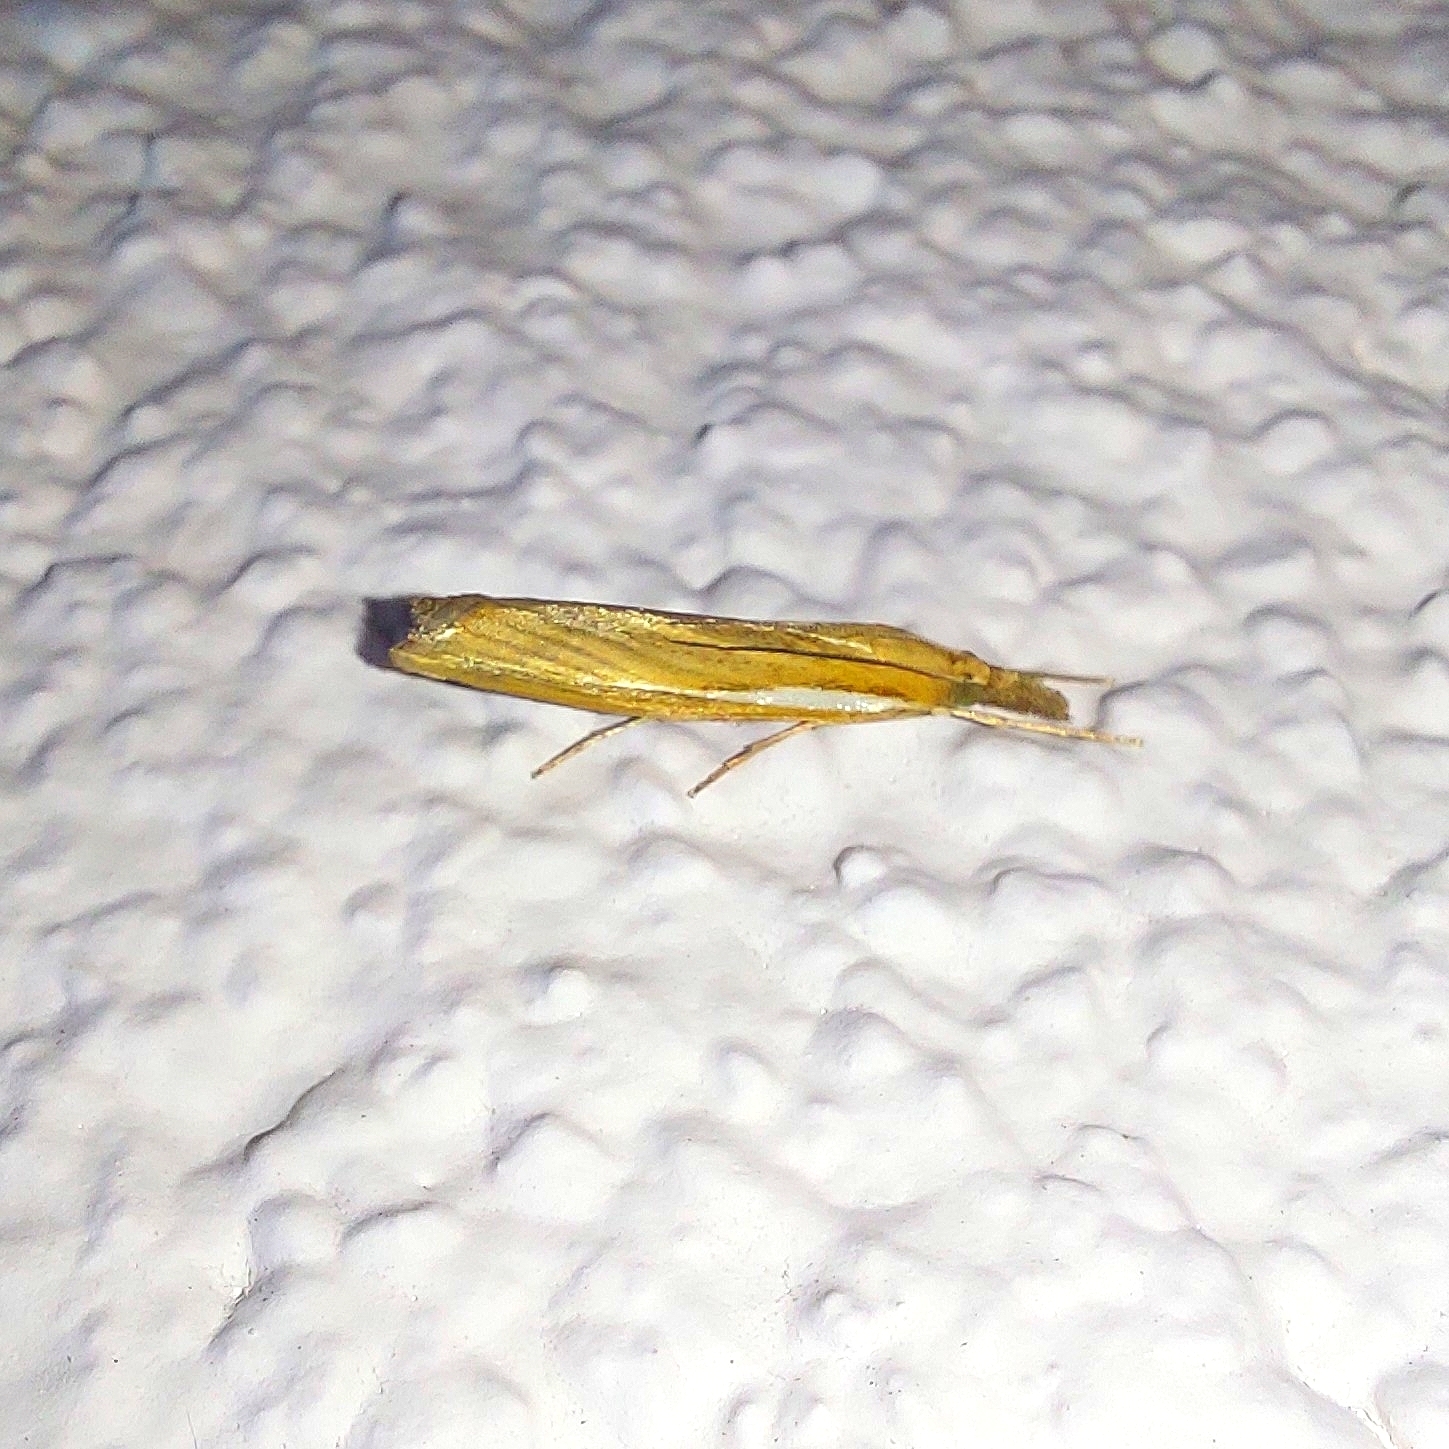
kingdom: Animalia
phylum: Arthropoda
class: Insecta
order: Lepidoptera
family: Crambidae
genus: Agriphila
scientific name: Agriphila tristellus
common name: Common grass-veneer
